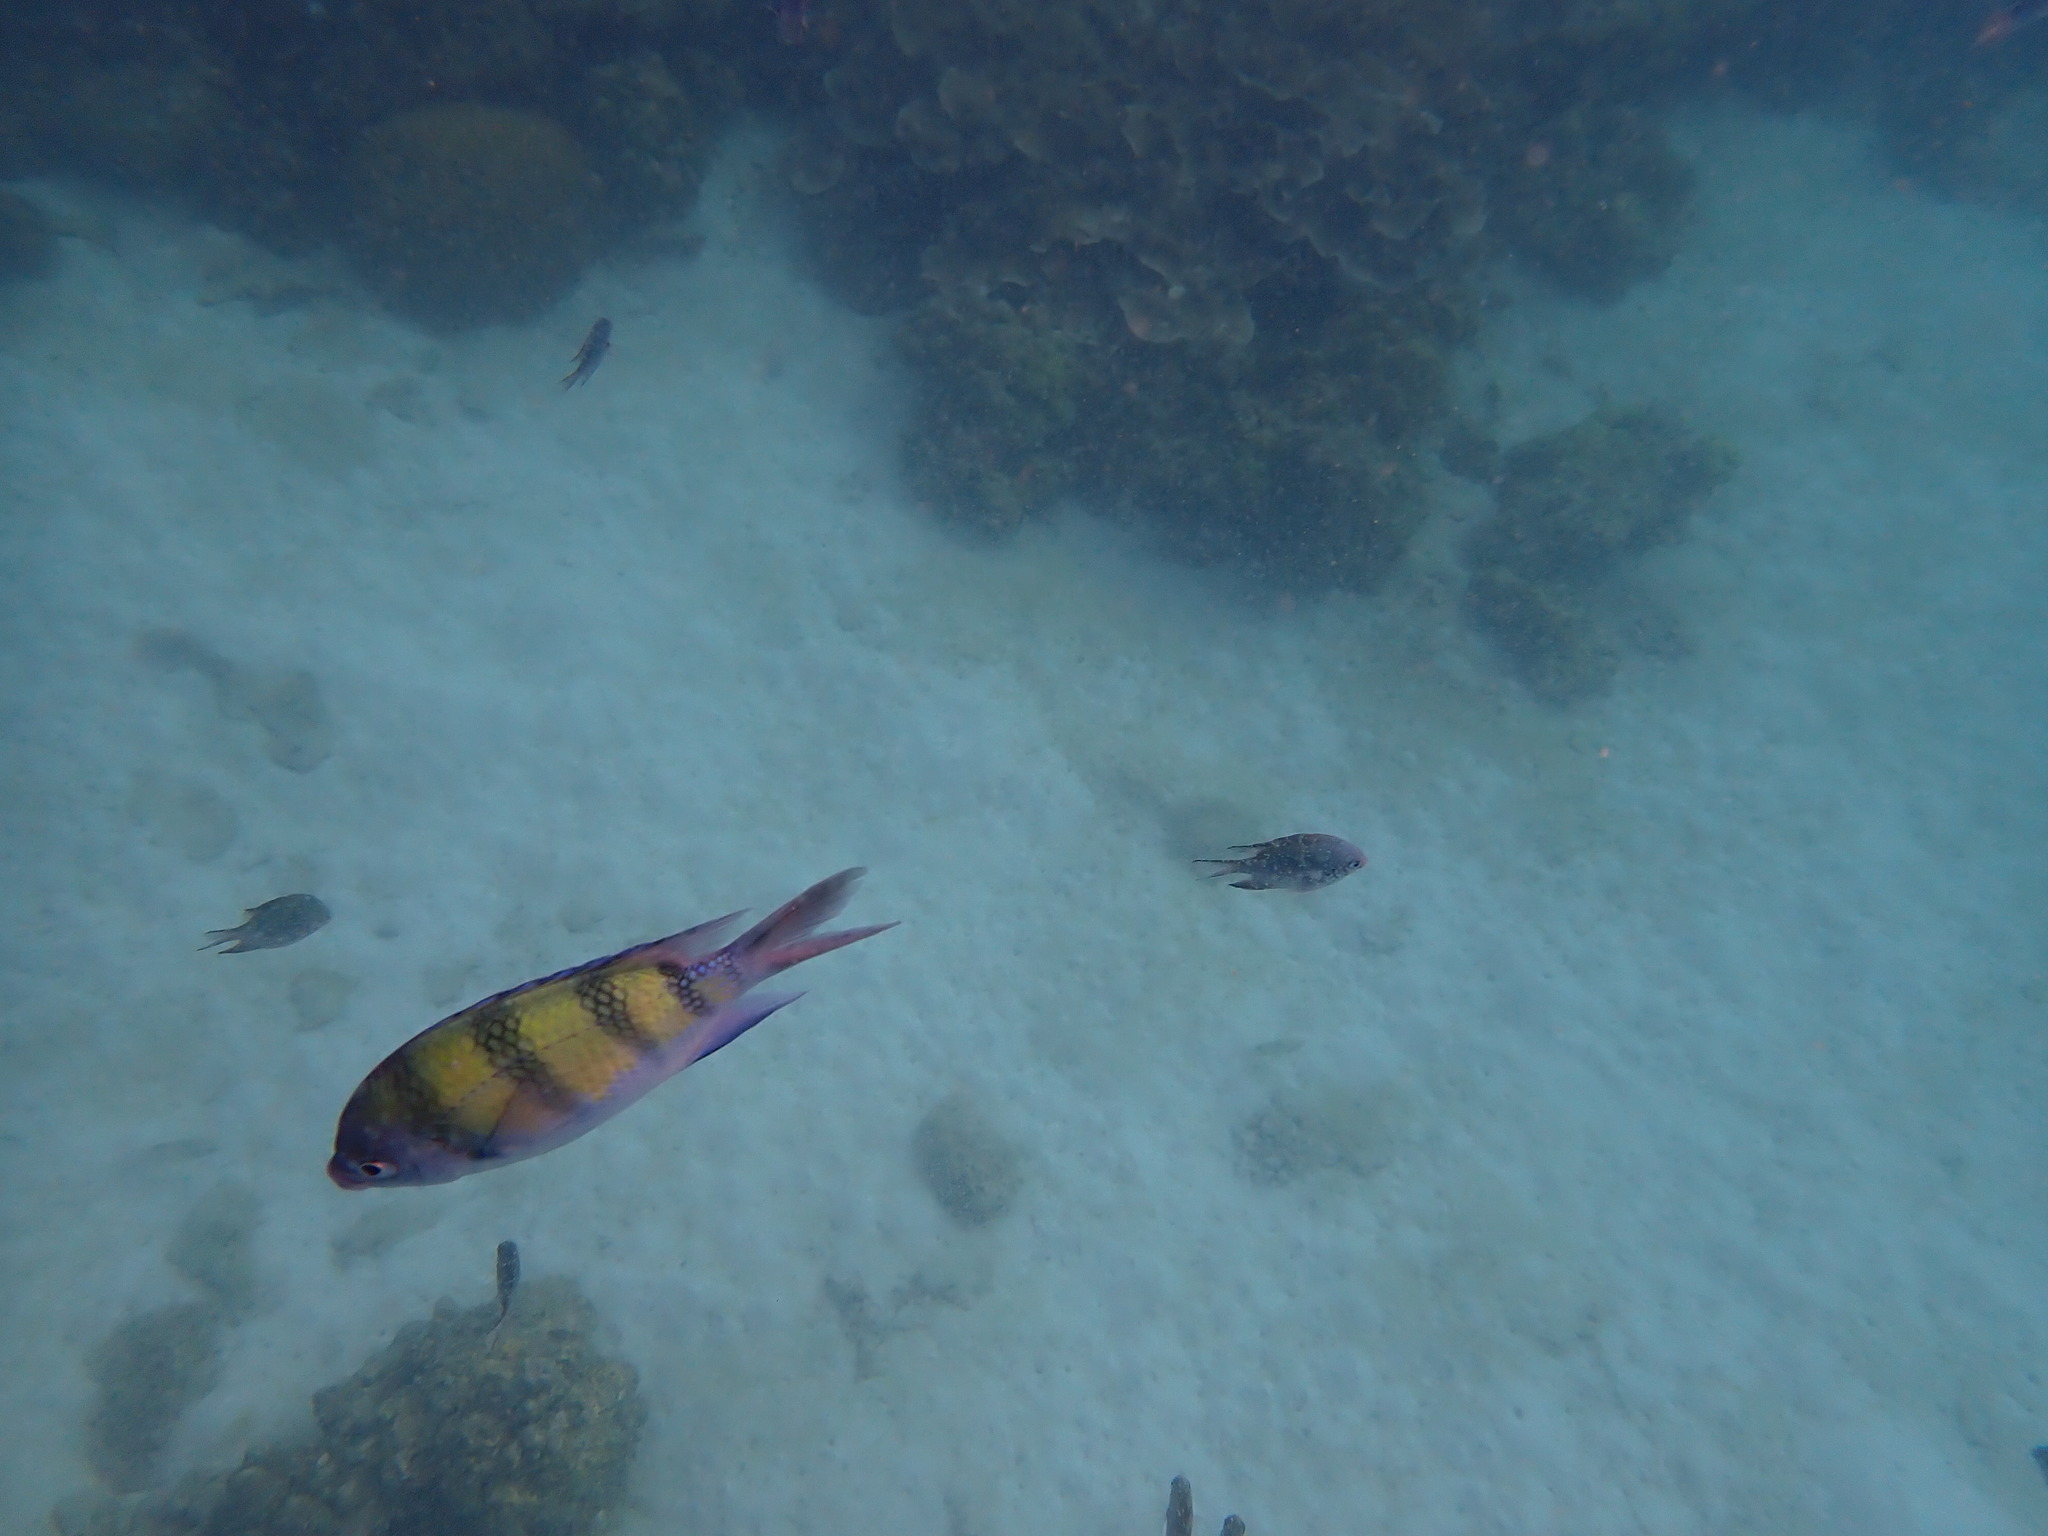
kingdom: Animalia
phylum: Chordata
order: Perciformes
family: Pomacentridae
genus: Abudefduf
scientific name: Abudefduf vaigiensis
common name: Indo-pacific sergeant
